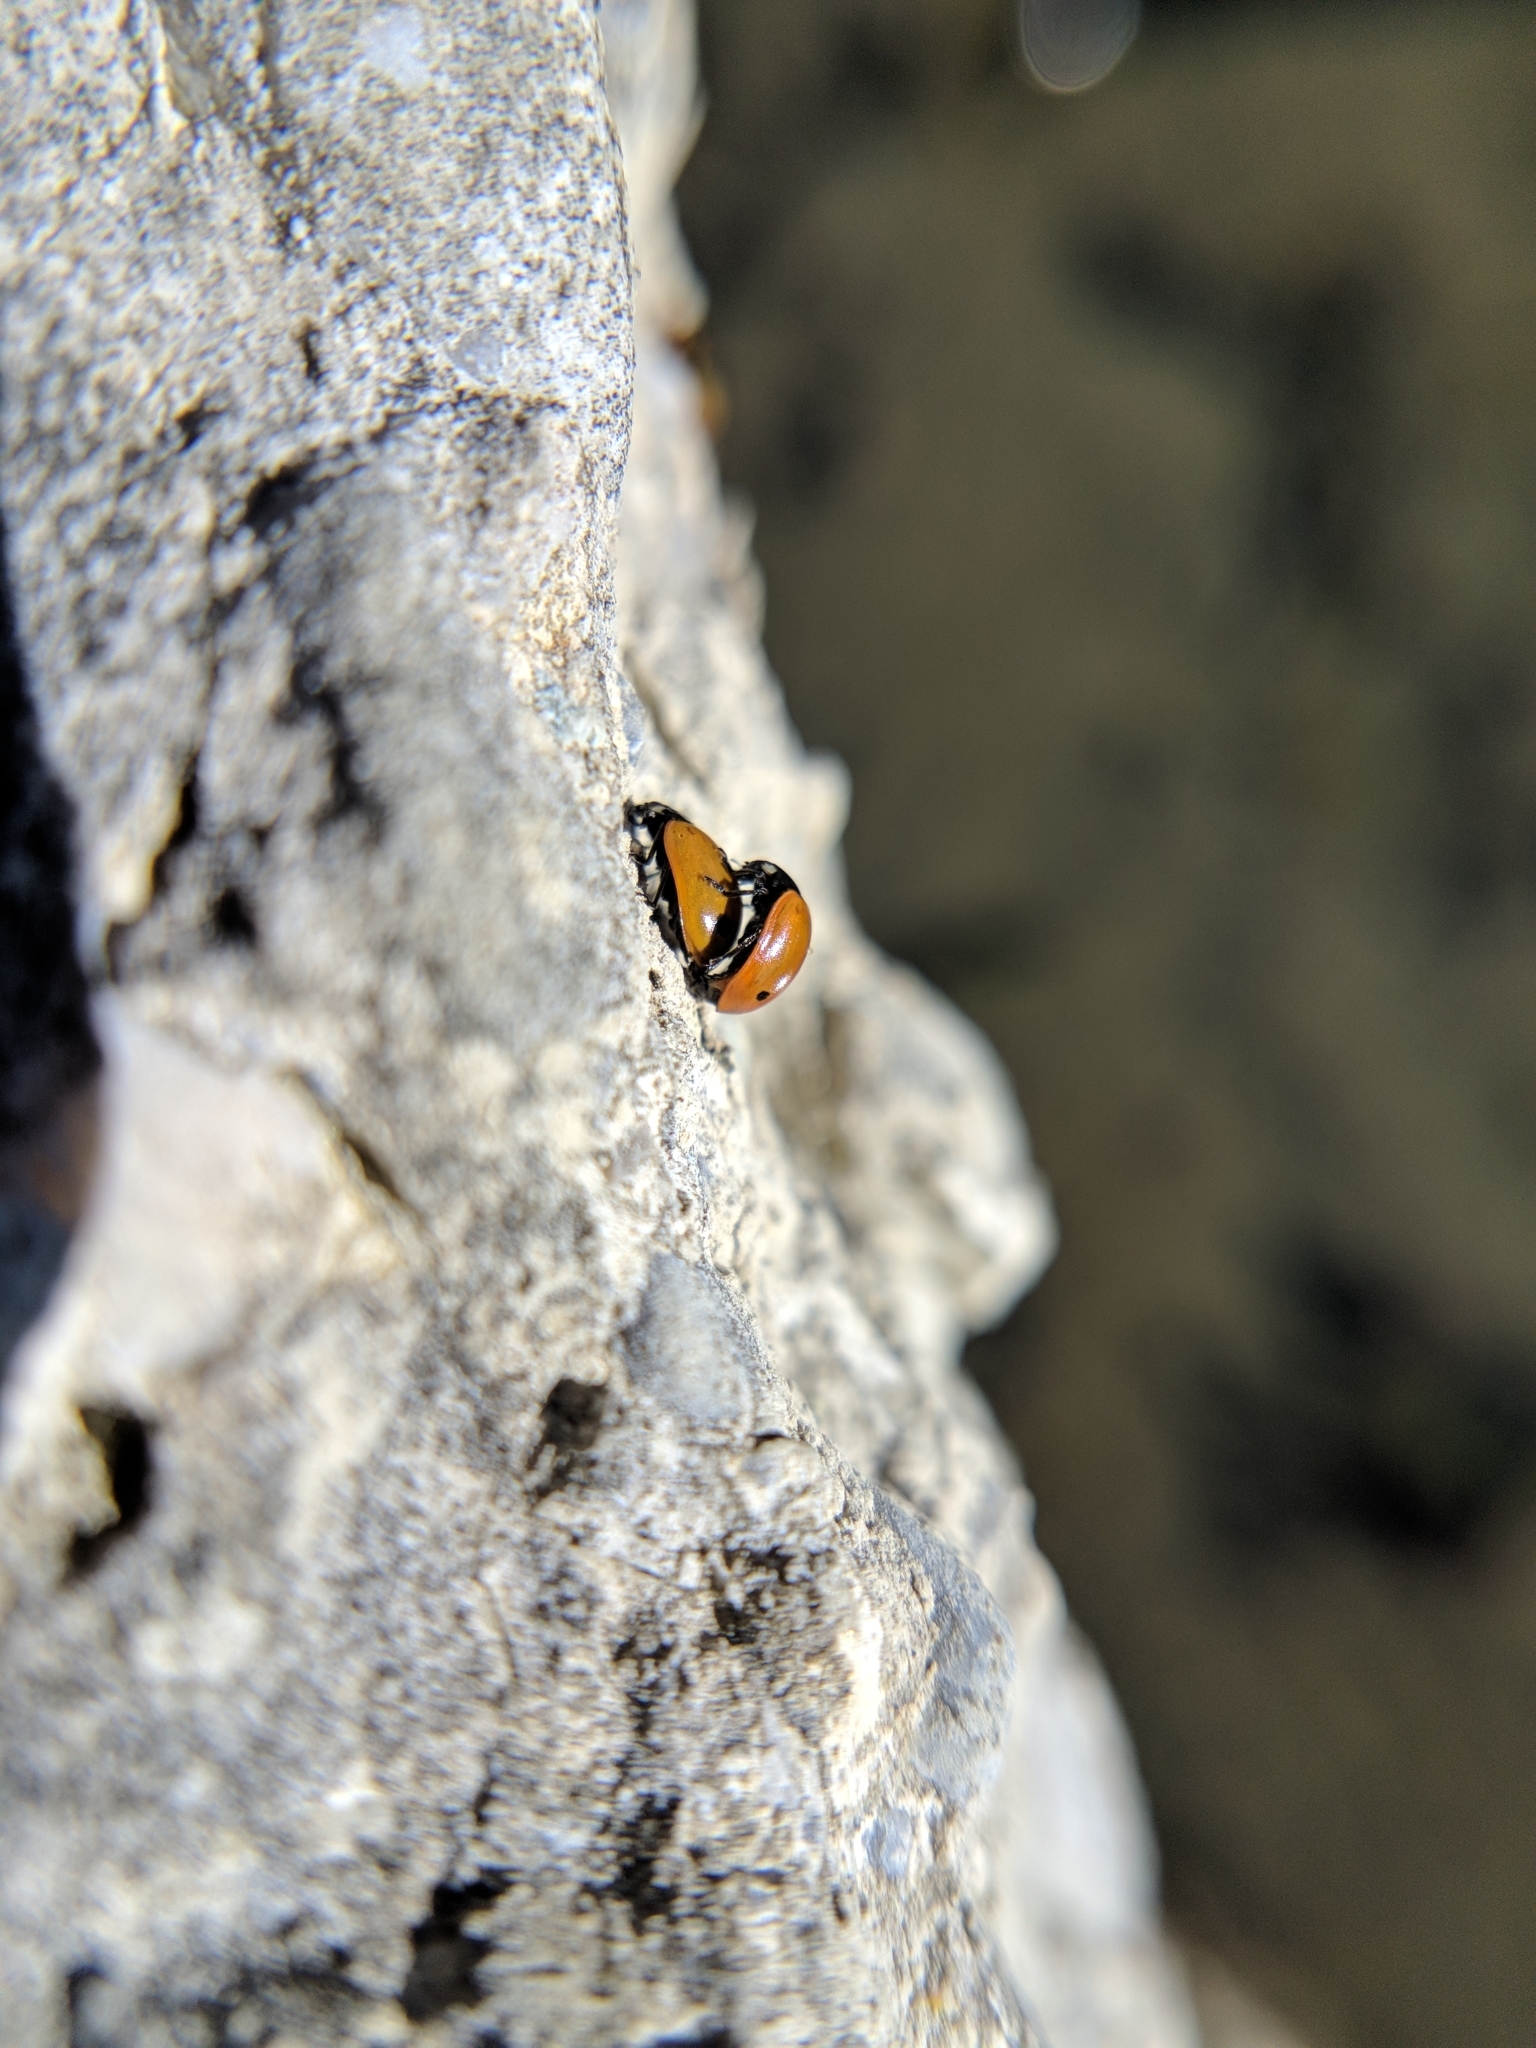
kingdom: Animalia
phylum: Arthropoda
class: Insecta
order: Coleoptera
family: Coccinellidae
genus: Coccinella
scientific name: Coccinella septempunctata
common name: Sevenspotted lady beetle
